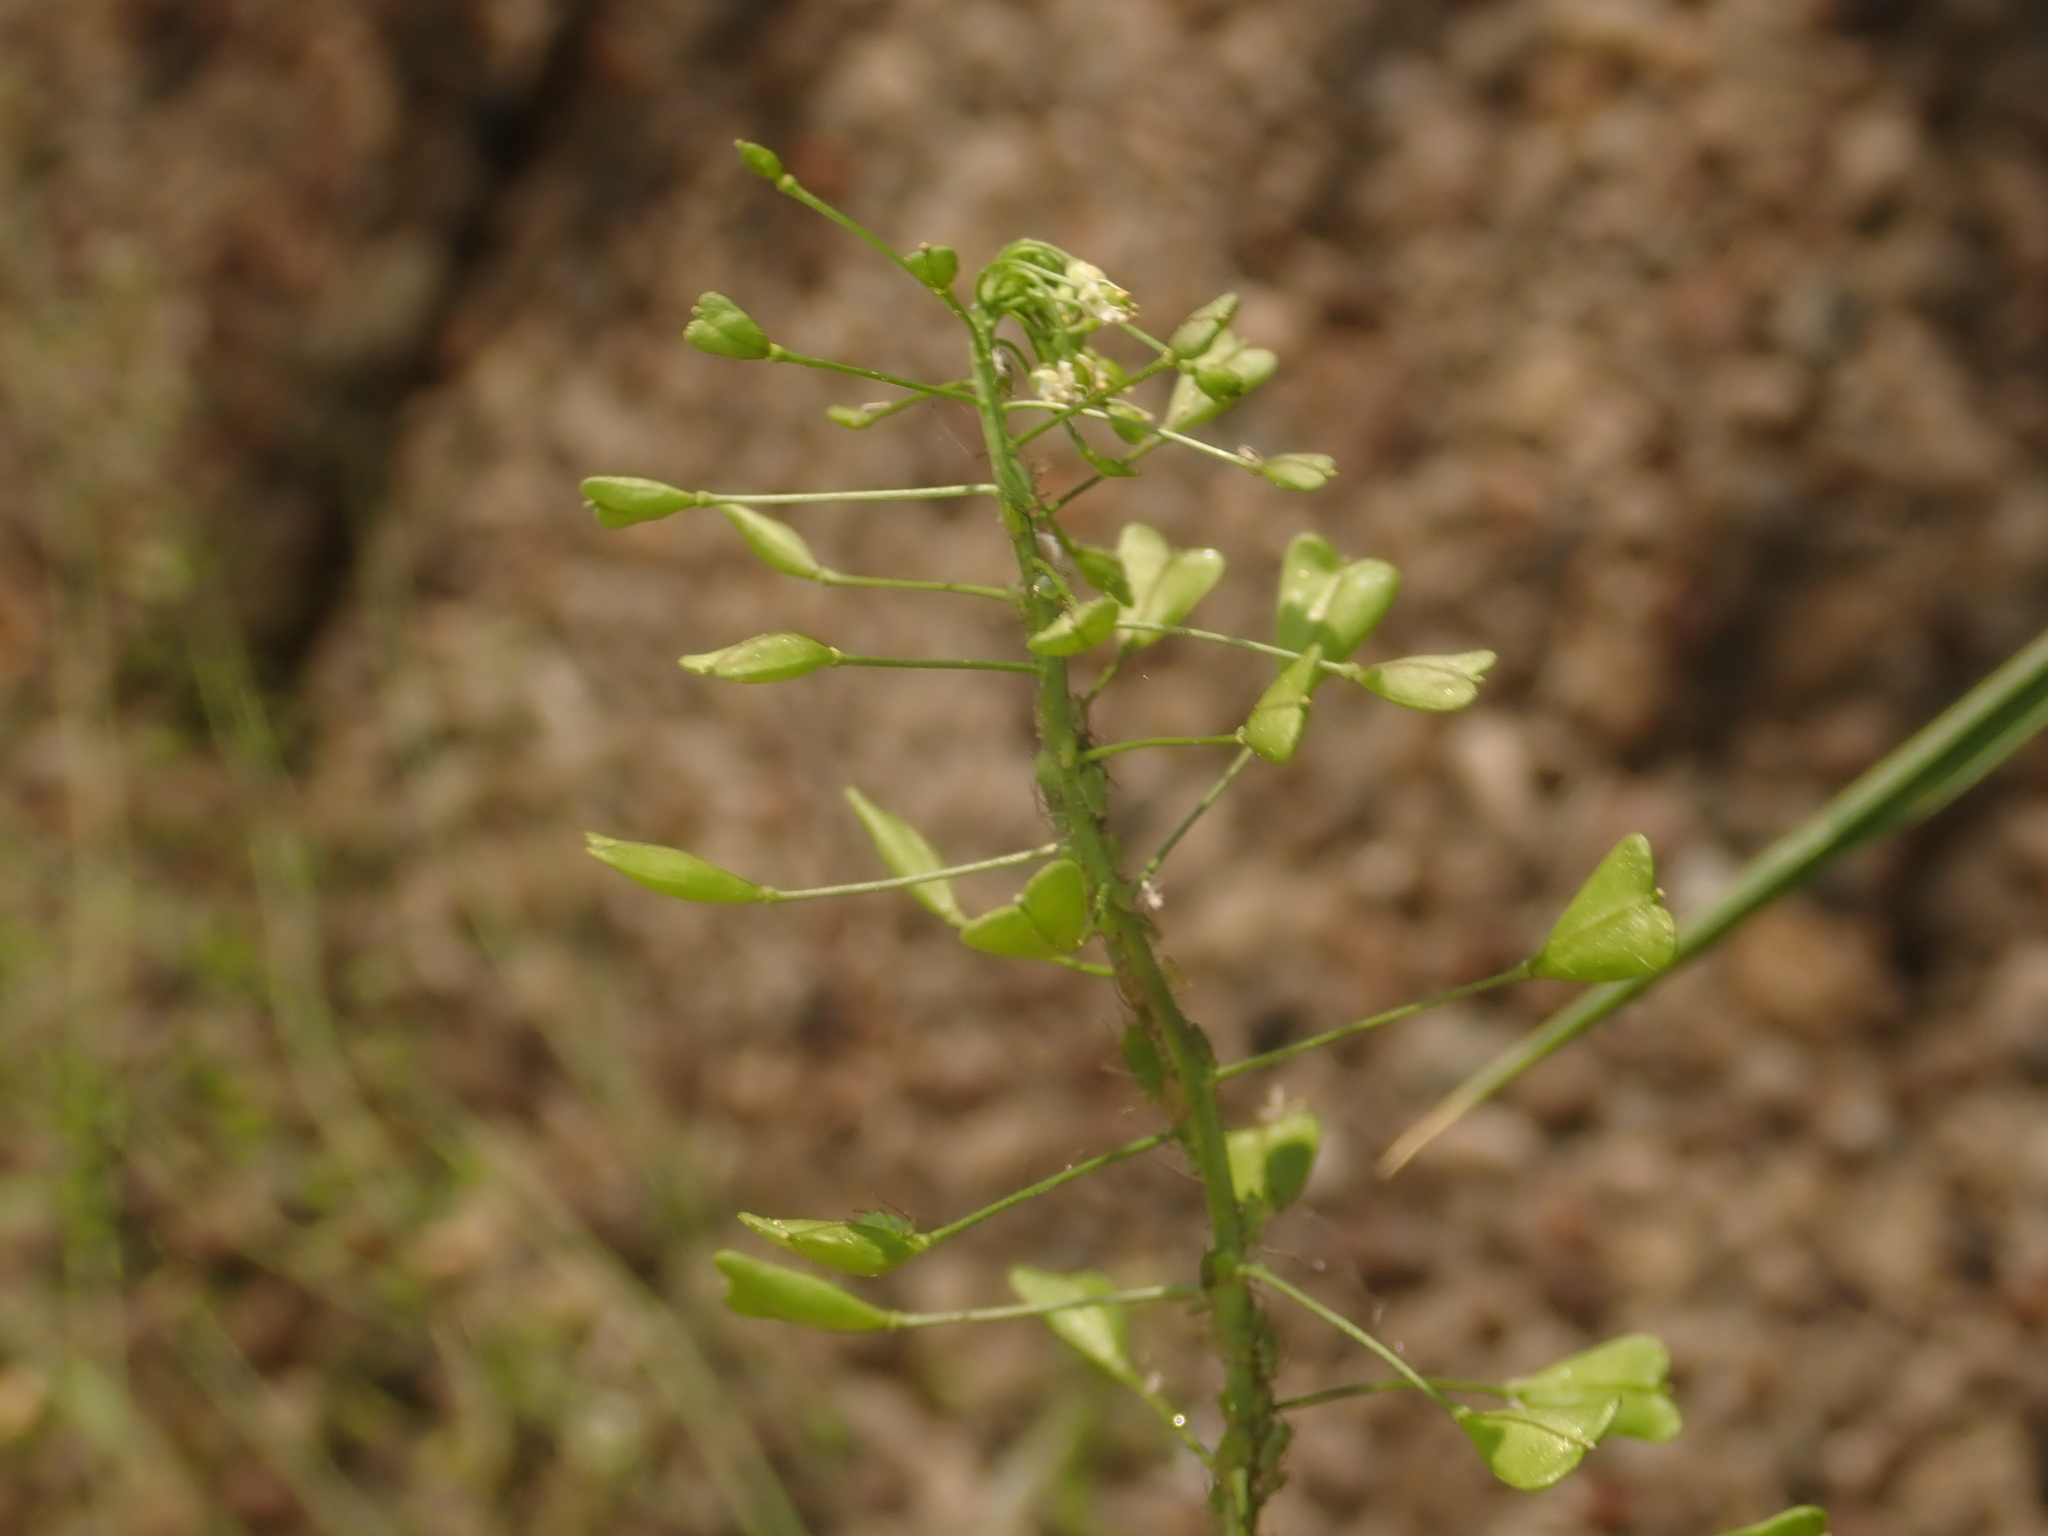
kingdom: Plantae
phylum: Tracheophyta
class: Magnoliopsida
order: Brassicales
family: Brassicaceae
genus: Capsella
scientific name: Capsella bursa-pastoris
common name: Shepherd's purse
